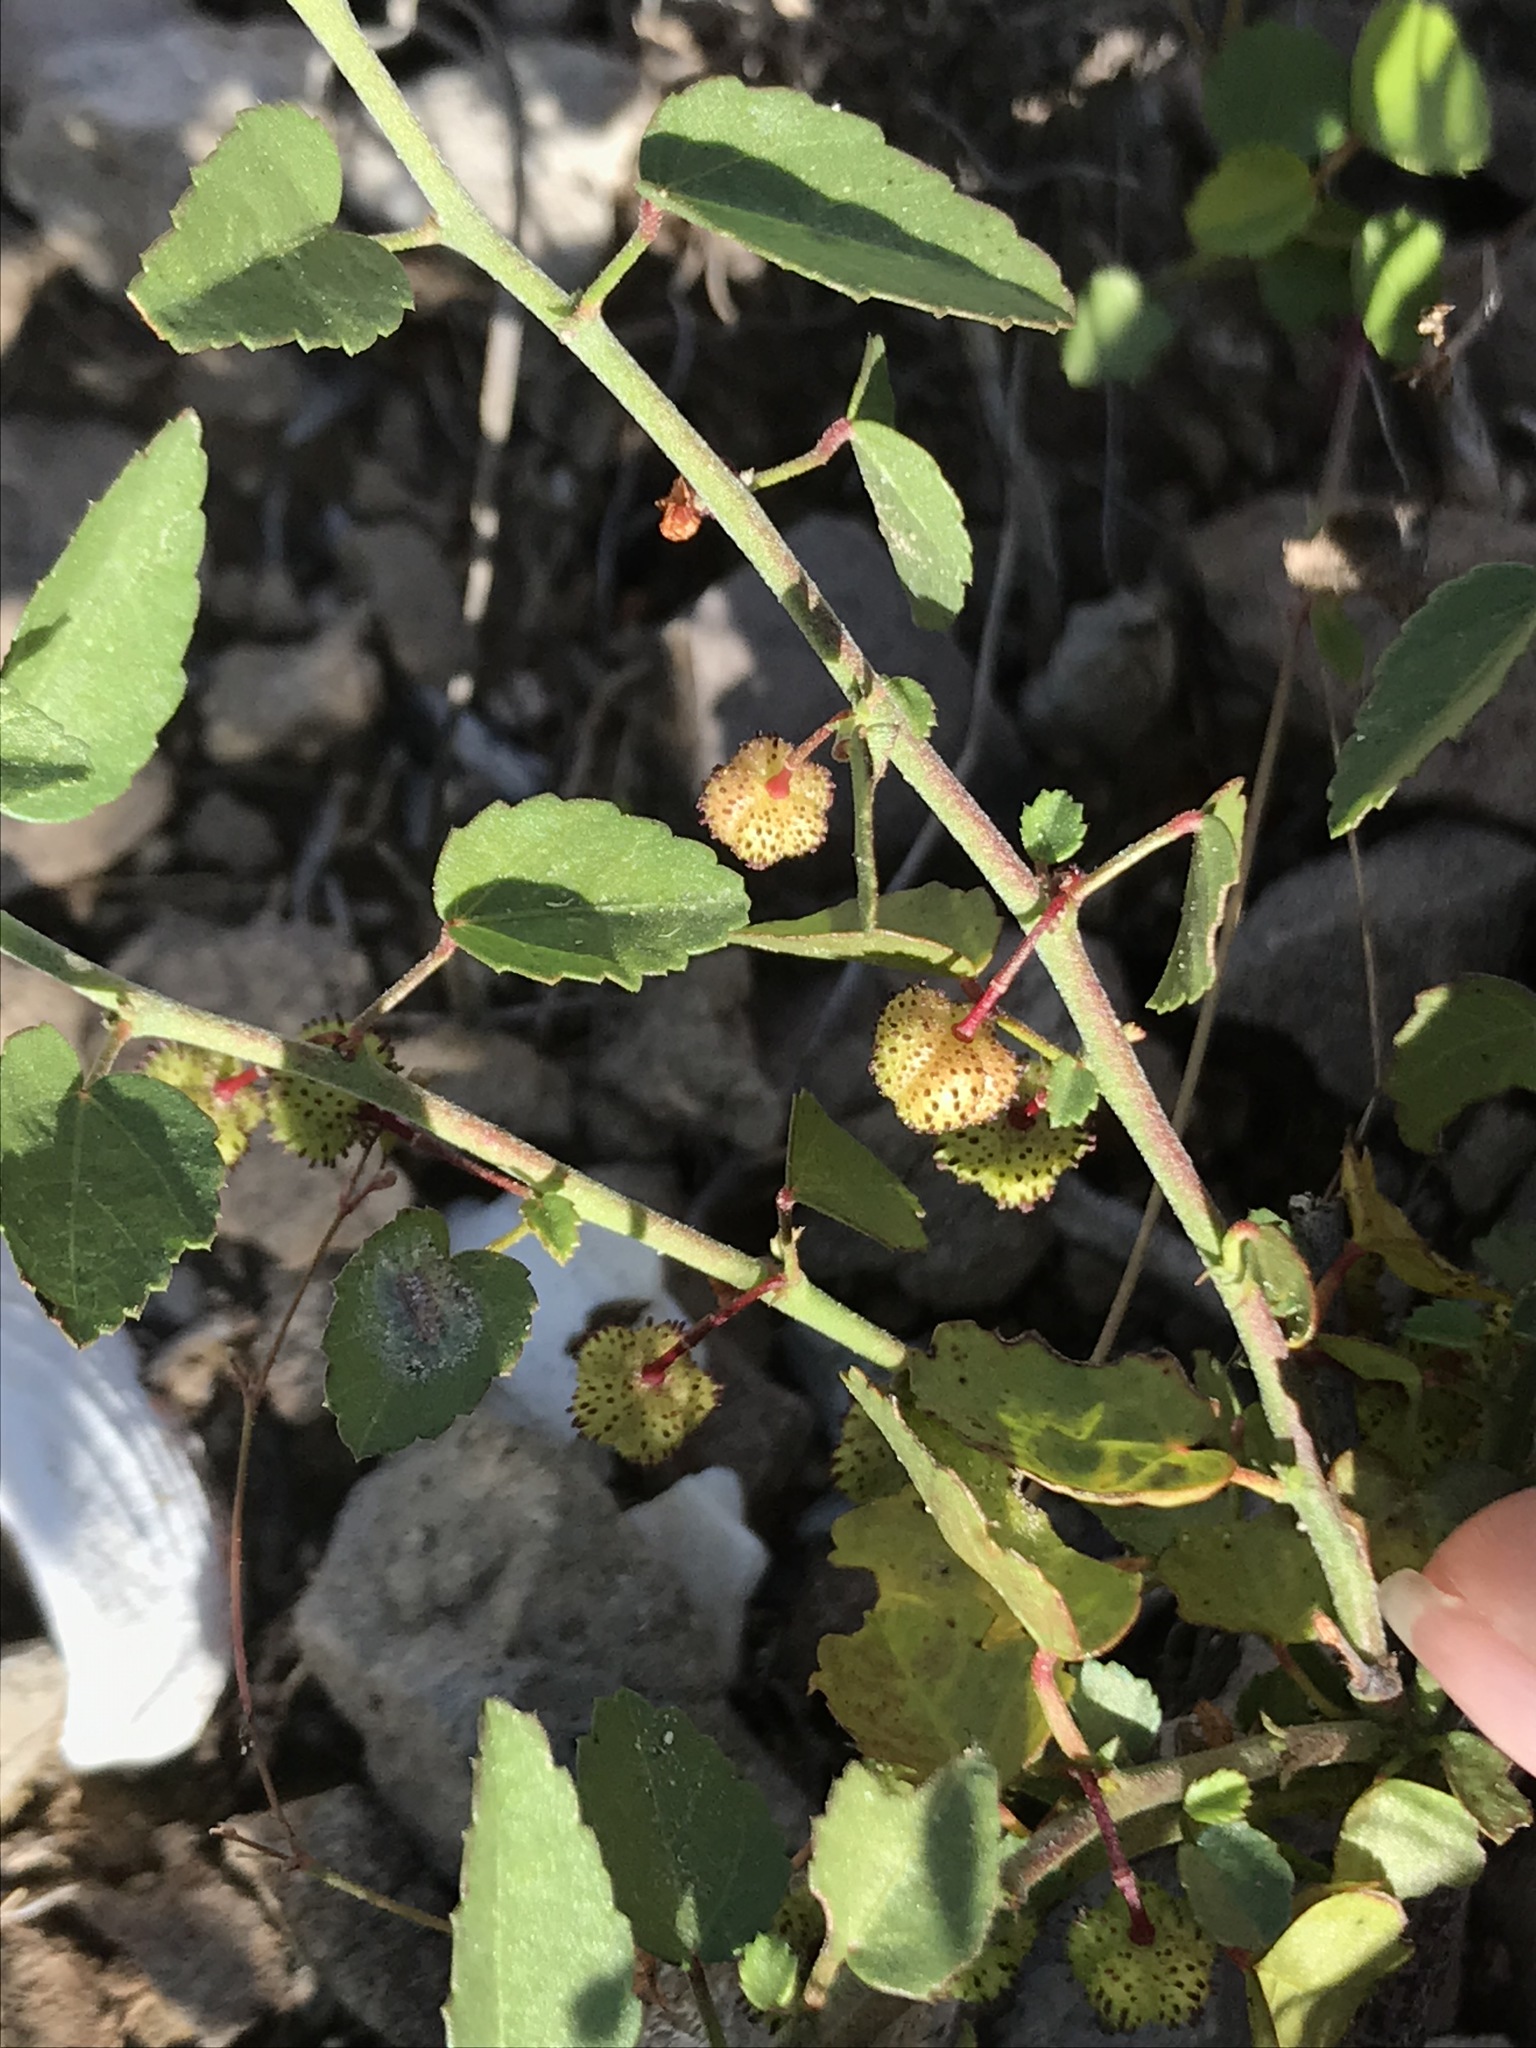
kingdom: Plantae
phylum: Tracheophyta
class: Magnoliopsida
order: Malvales
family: Malvaceae
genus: Ayenia
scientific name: Ayenia compacta
